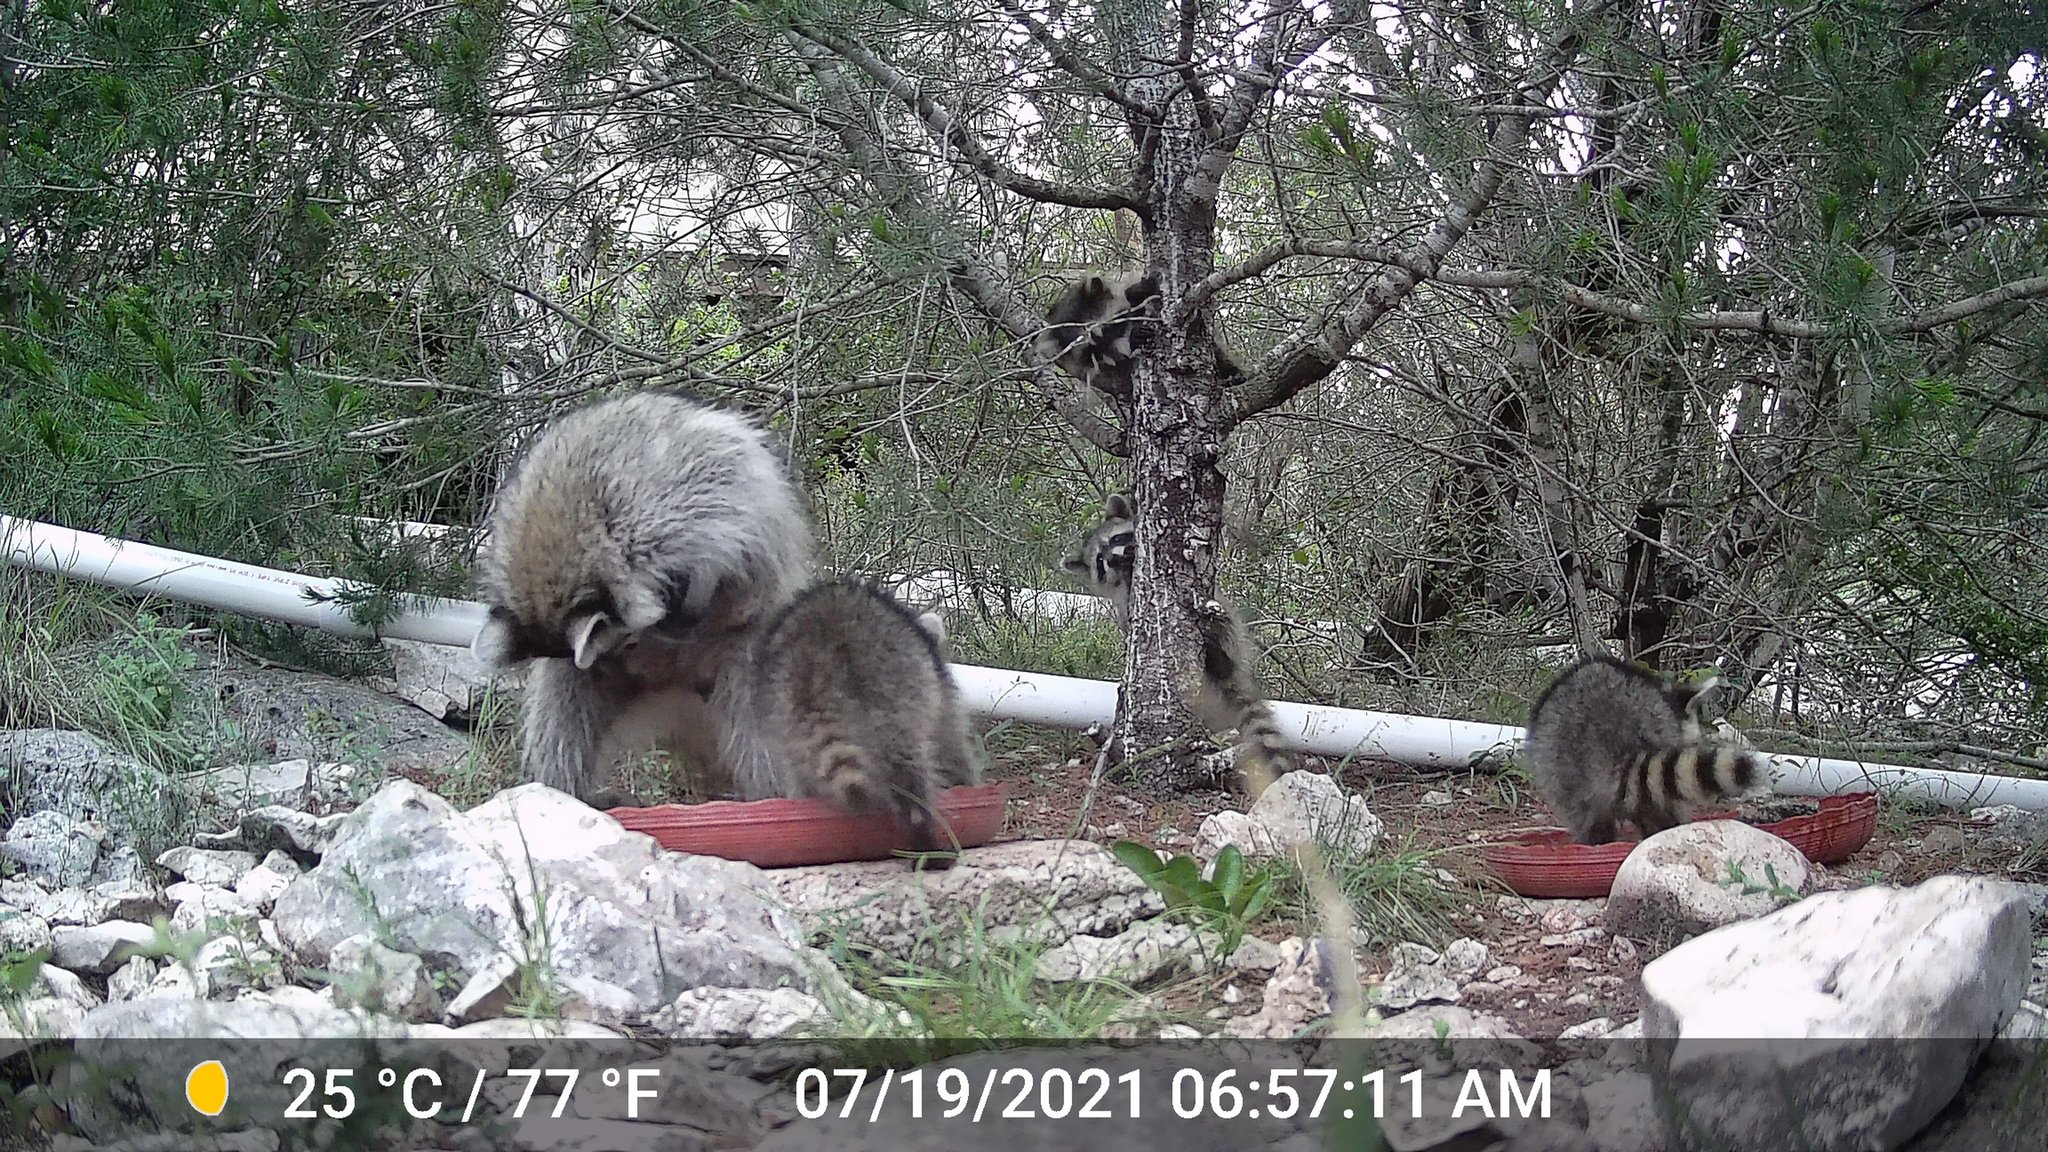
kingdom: Animalia
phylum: Chordata
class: Mammalia
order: Carnivora
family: Procyonidae
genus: Procyon
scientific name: Procyon lotor
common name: Raccoon
